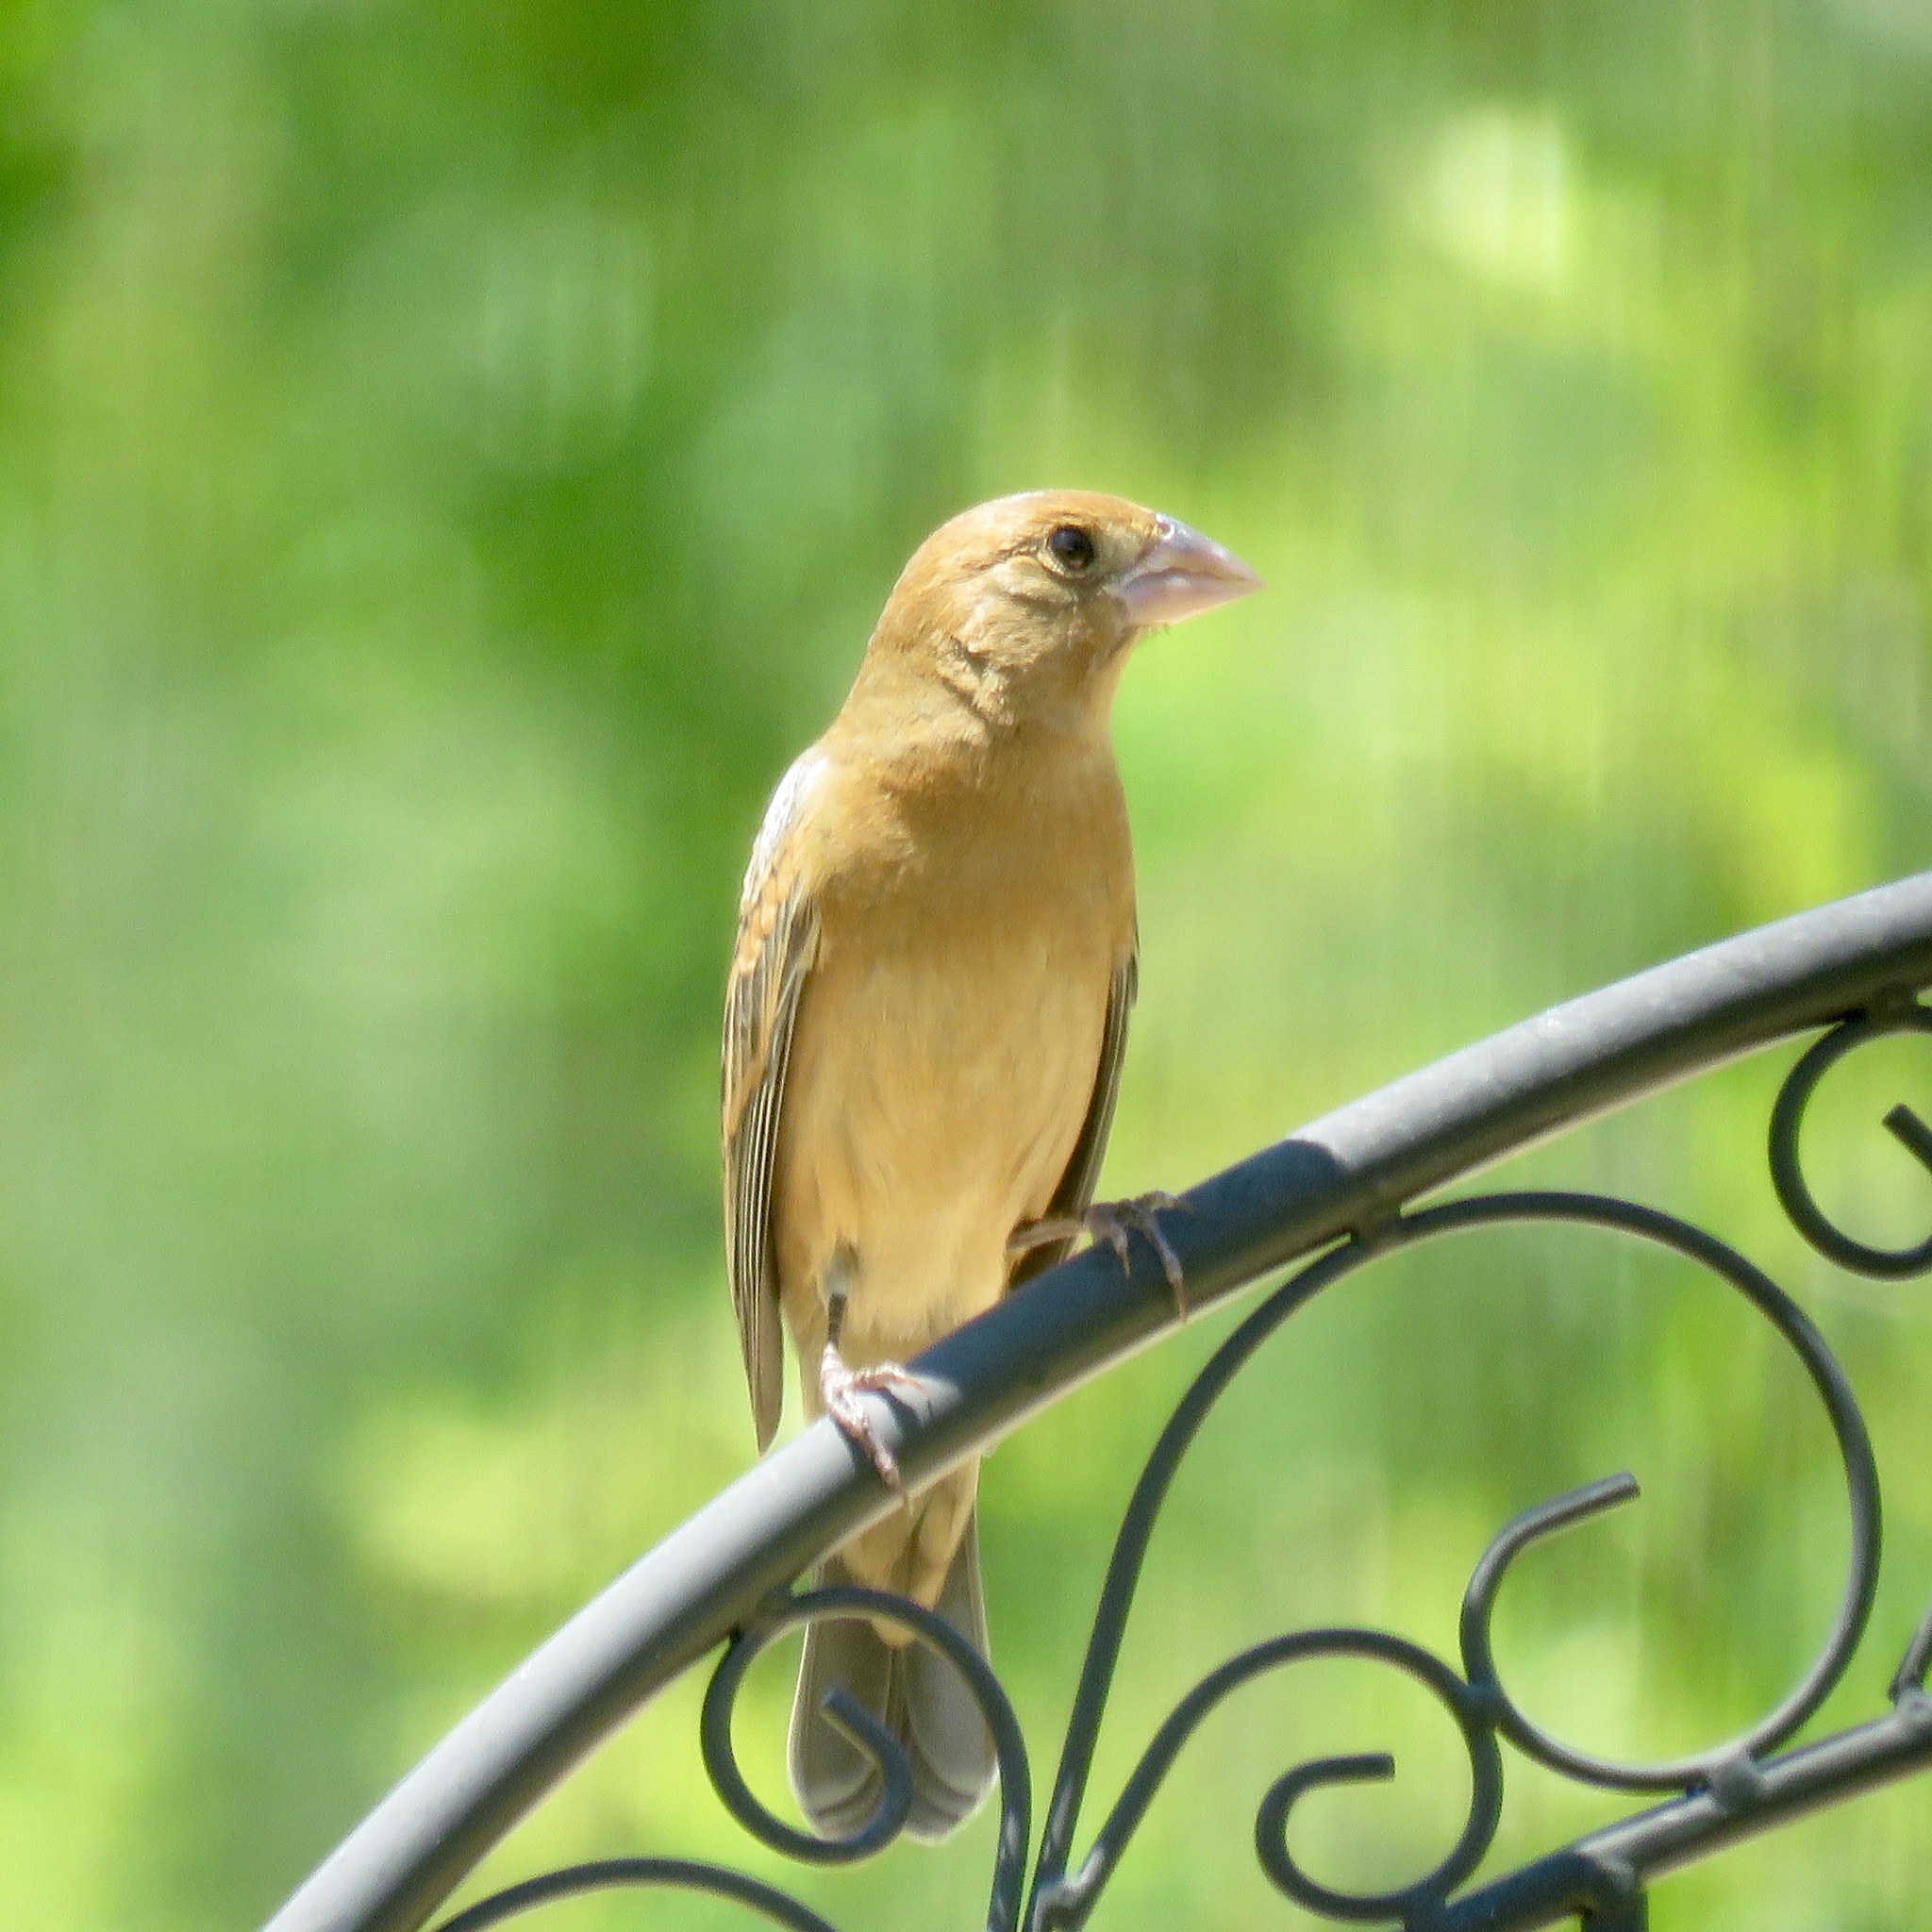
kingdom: Animalia
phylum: Chordata
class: Aves
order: Passeriformes
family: Cardinalidae
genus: Passerina
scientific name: Passerina caerulea
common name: Blue grosbeak
